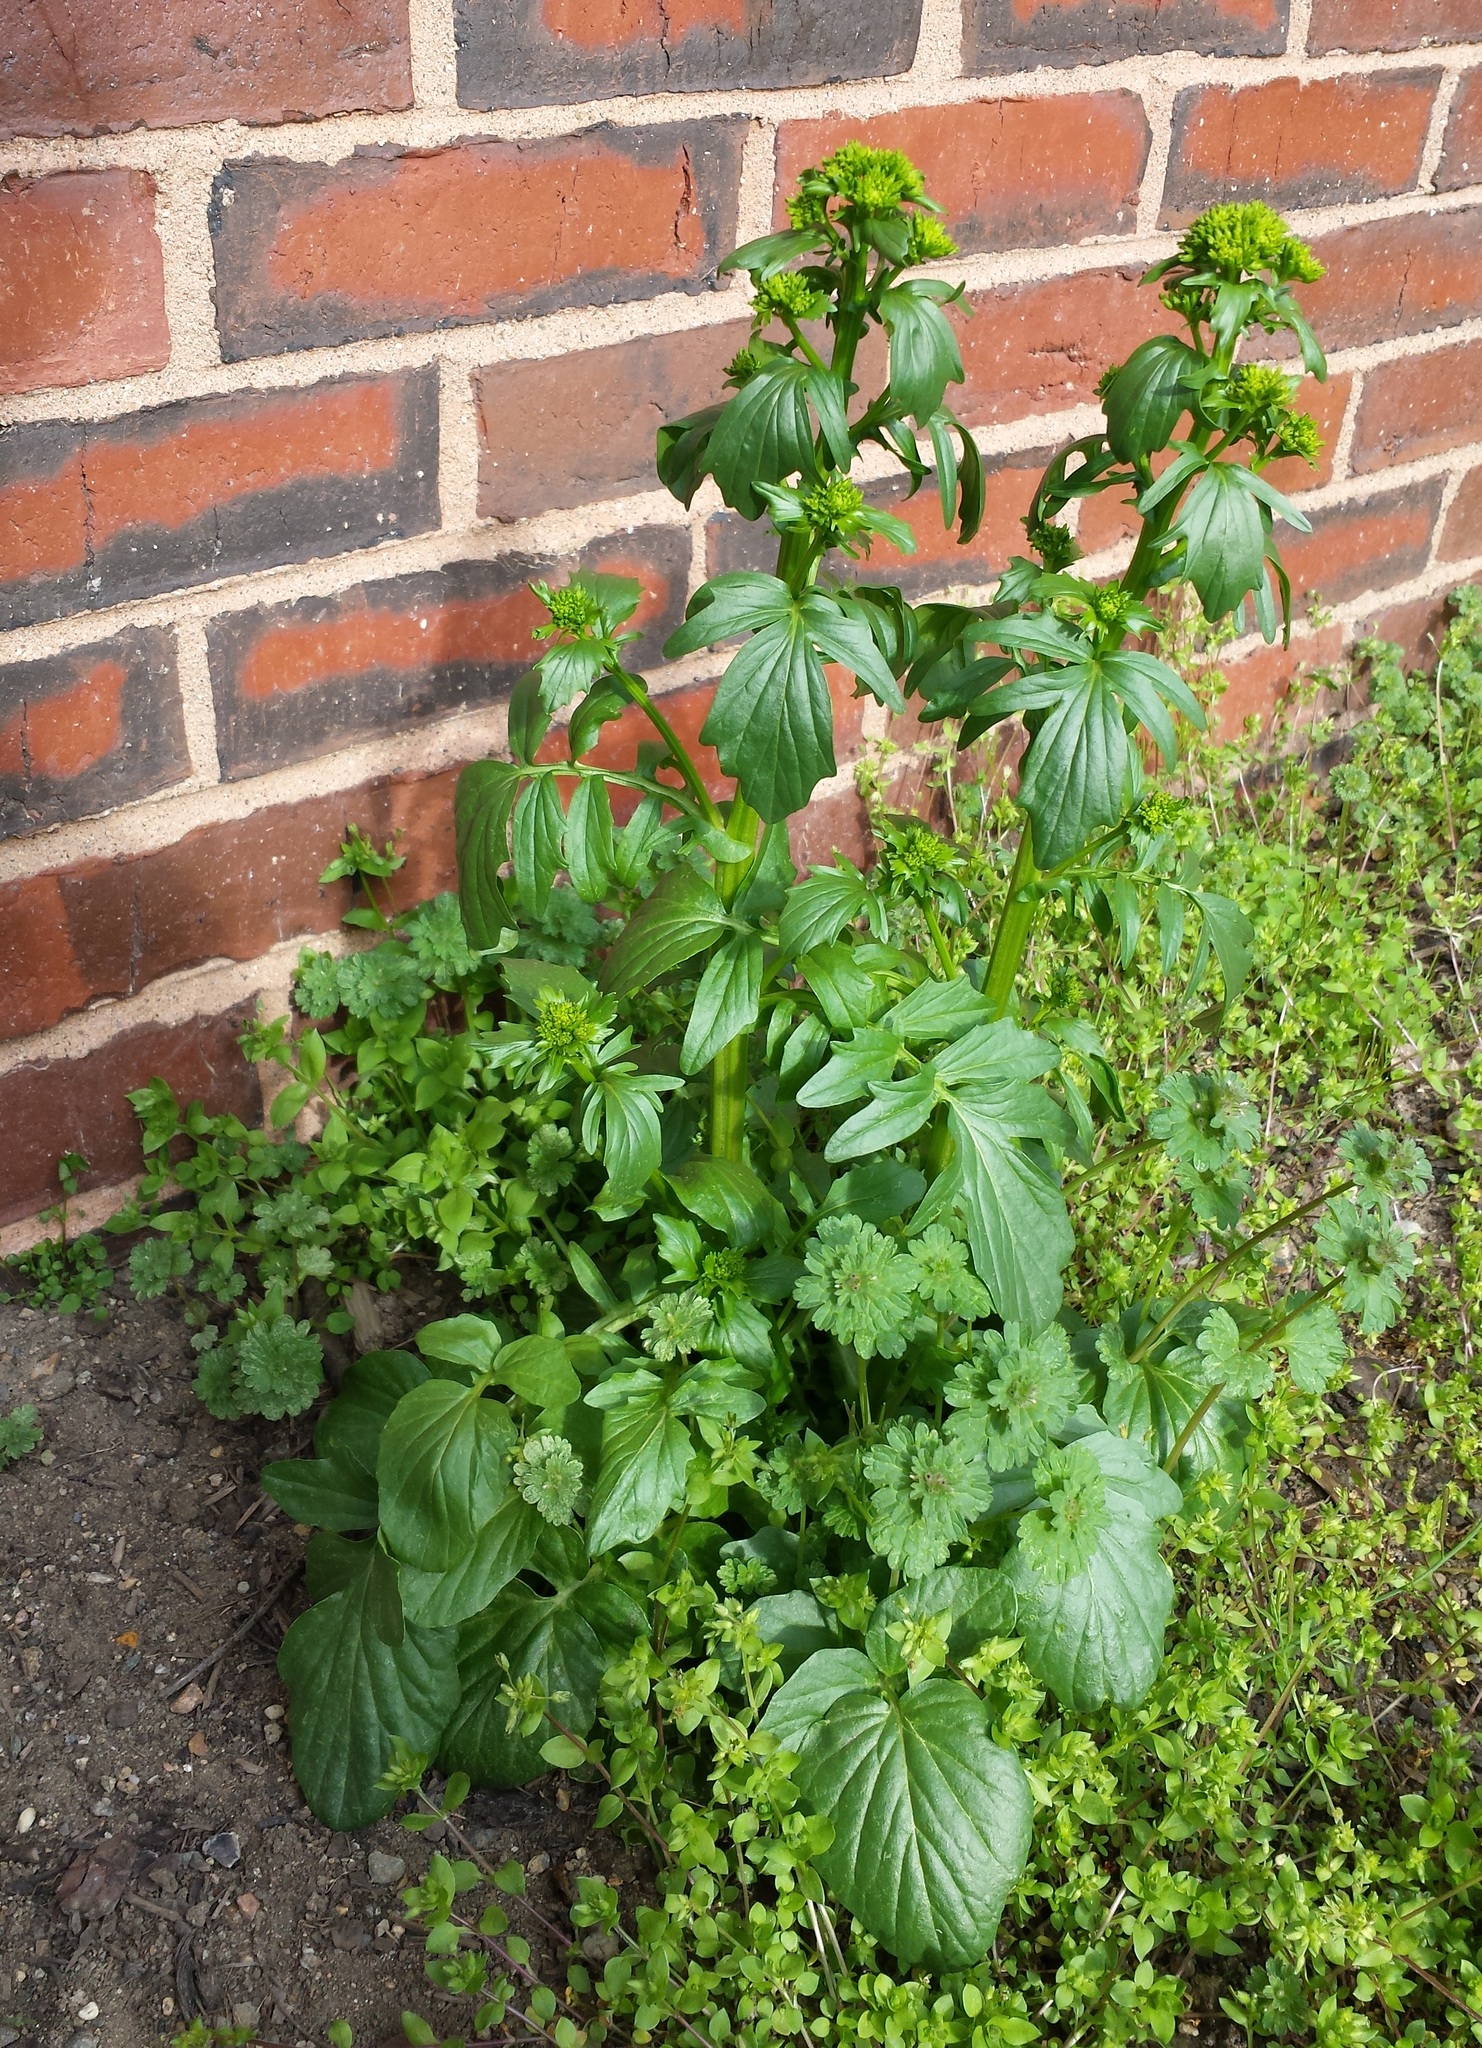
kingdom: Plantae
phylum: Tracheophyta
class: Magnoliopsida
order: Brassicales
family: Brassicaceae
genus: Barbarea
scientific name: Barbarea vulgaris
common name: Cressy-greens
